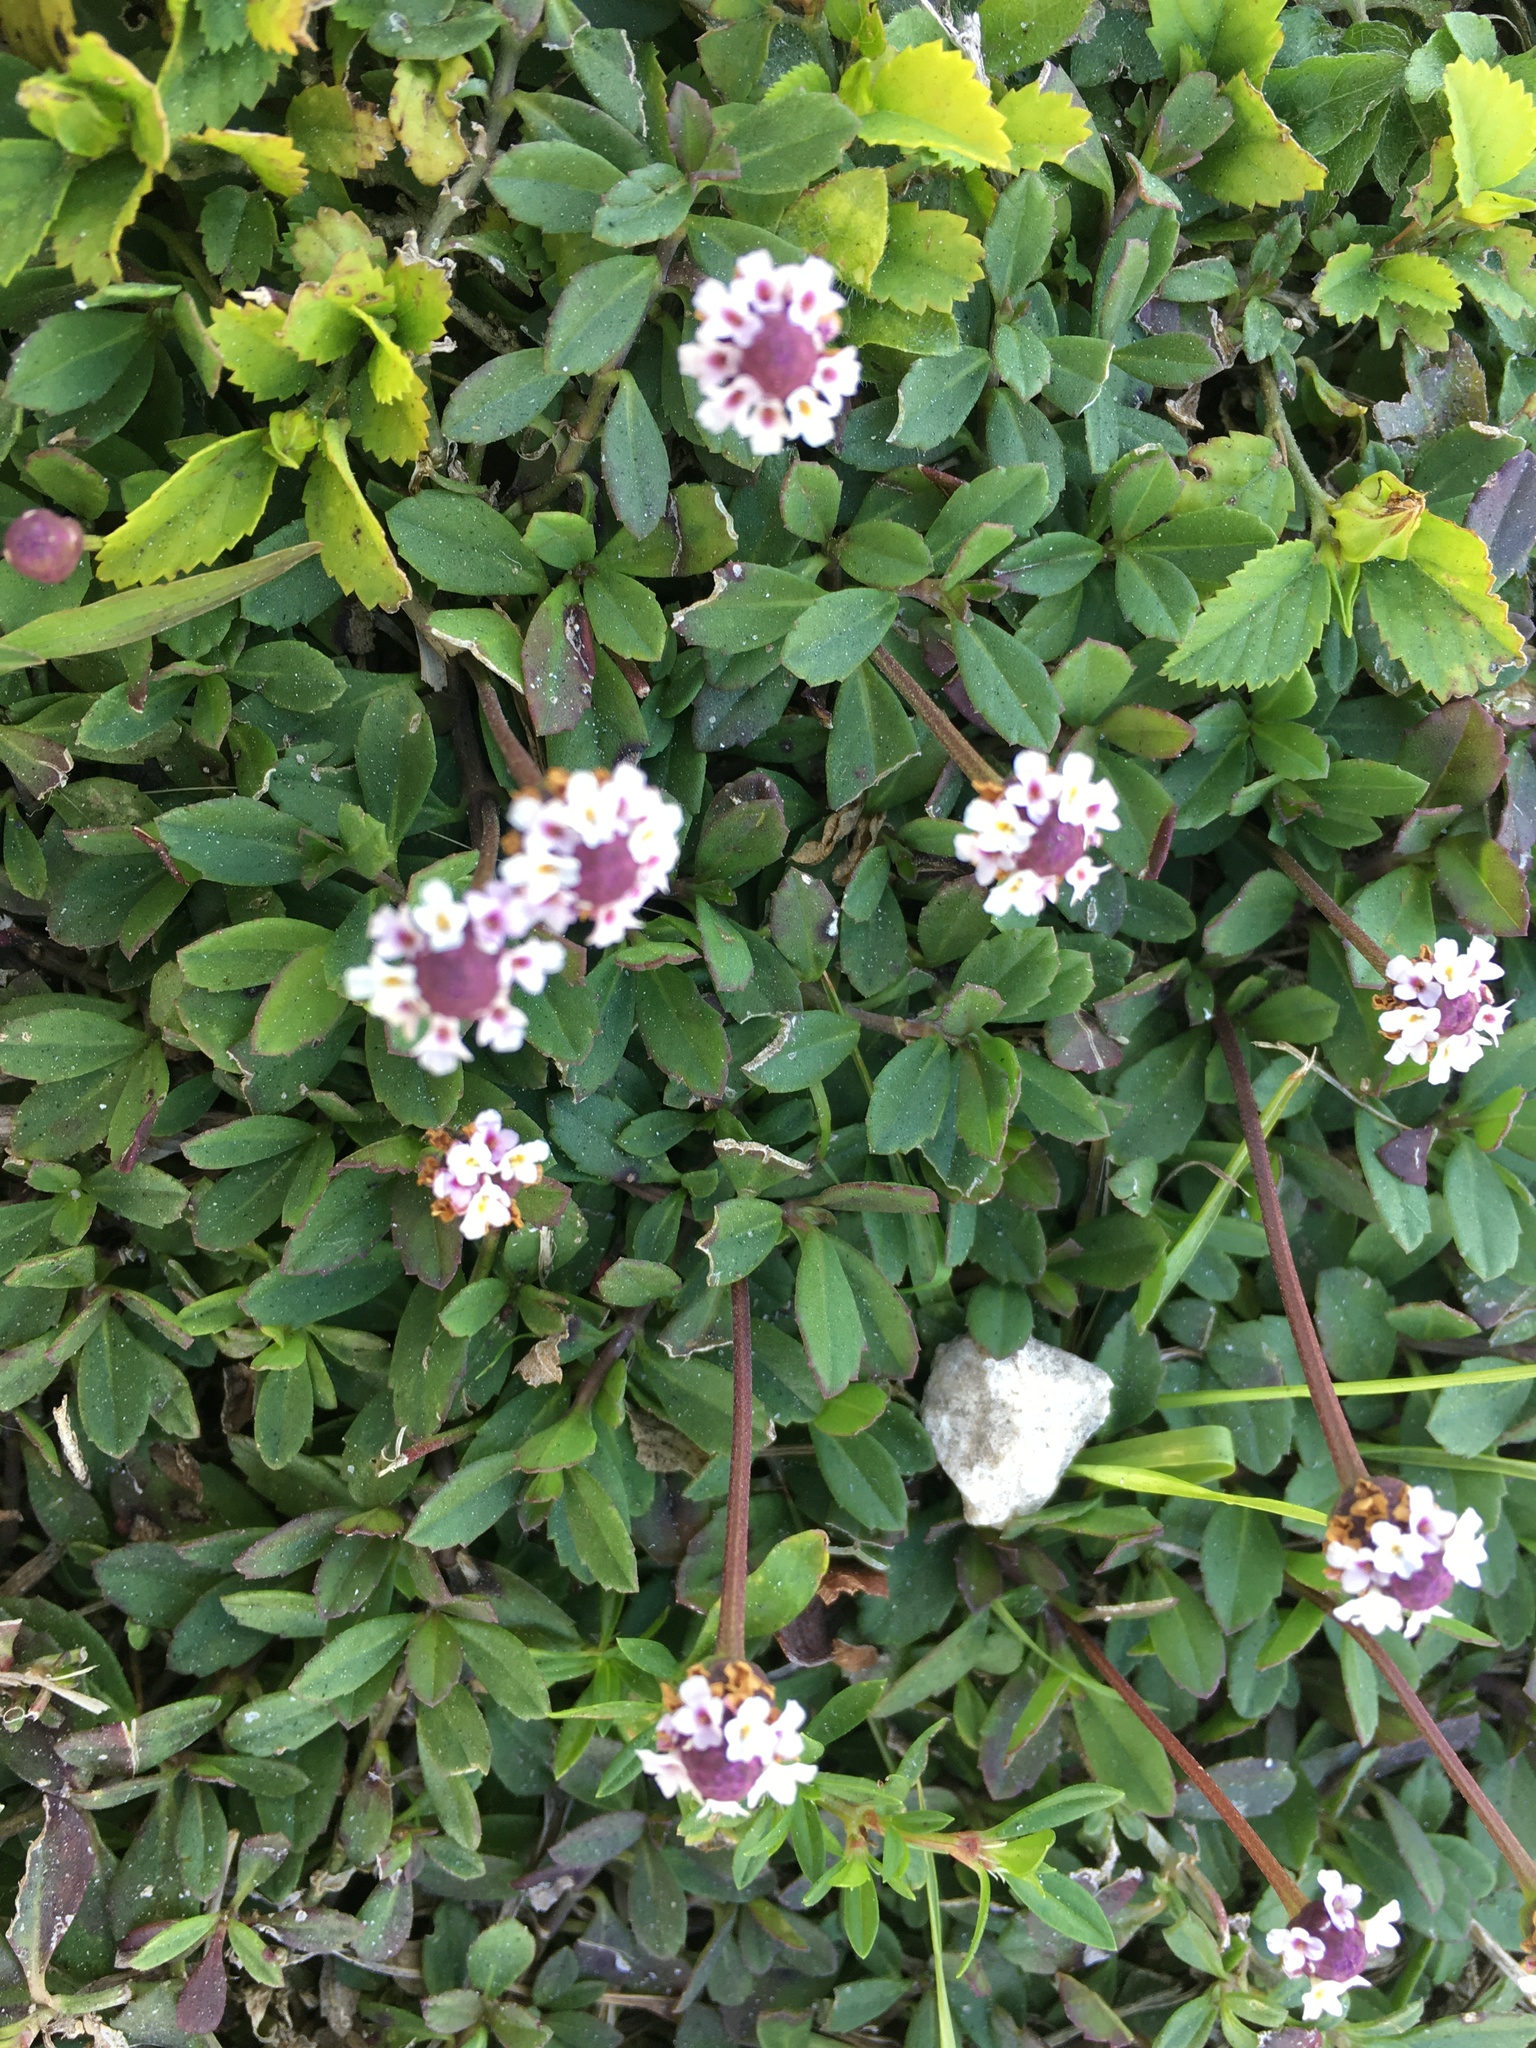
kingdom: Plantae
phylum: Tracheophyta
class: Magnoliopsida
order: Lamiales
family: Verbenaceae
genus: Phyla
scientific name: Phyla nodiflora
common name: Frogfruit
